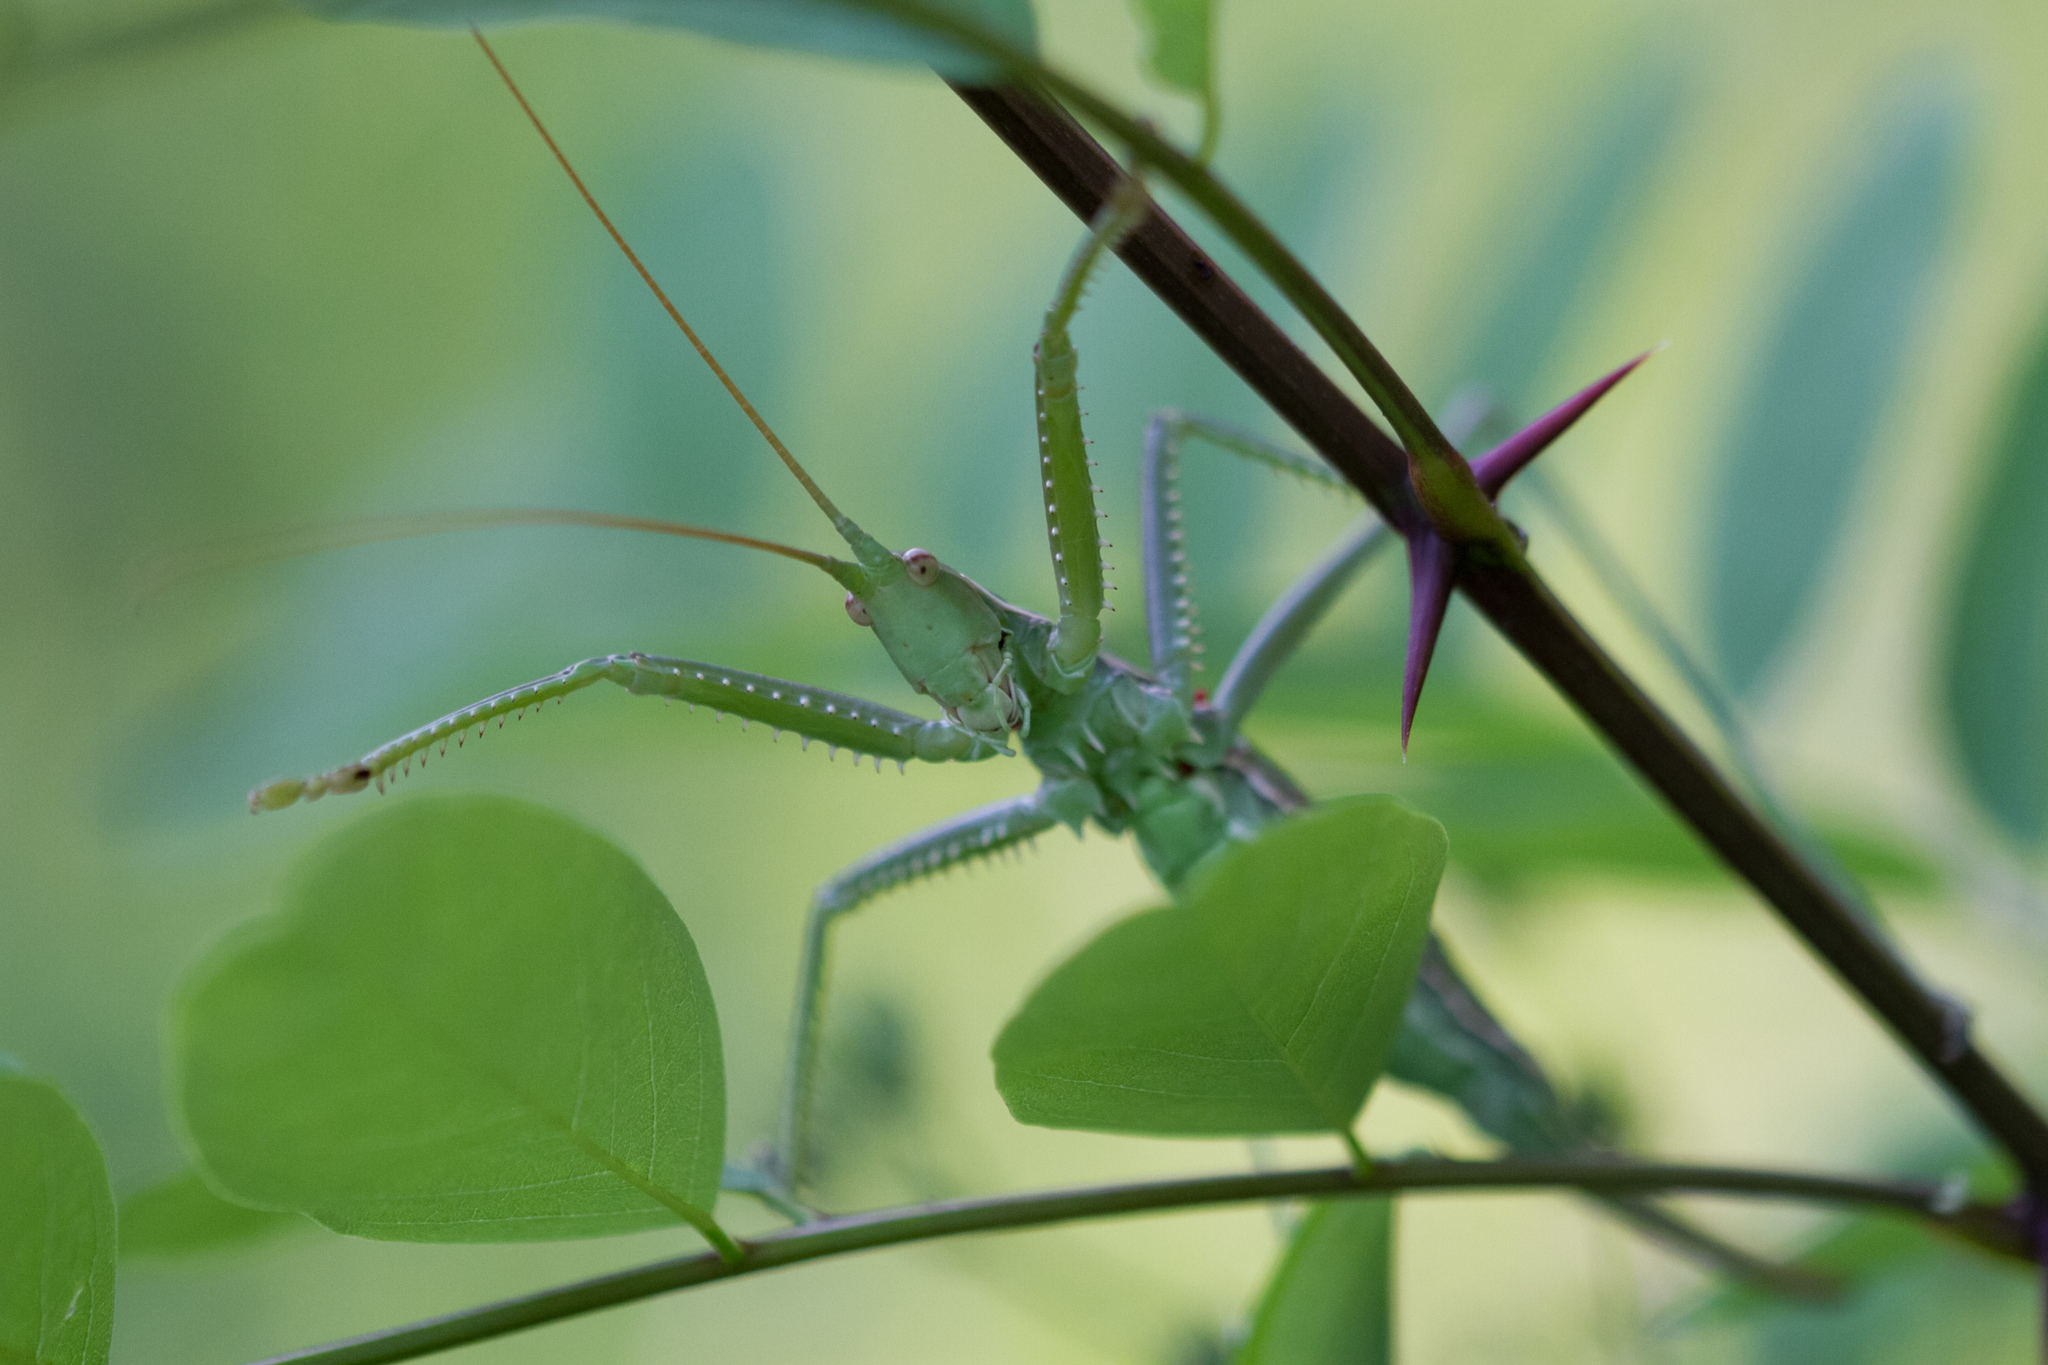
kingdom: Animalia
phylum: Arthropoda
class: Insecta
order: Orthoptera
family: Tettigoniidae
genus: Saga
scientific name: Saga pedo
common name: Common predatory bush-cricket
